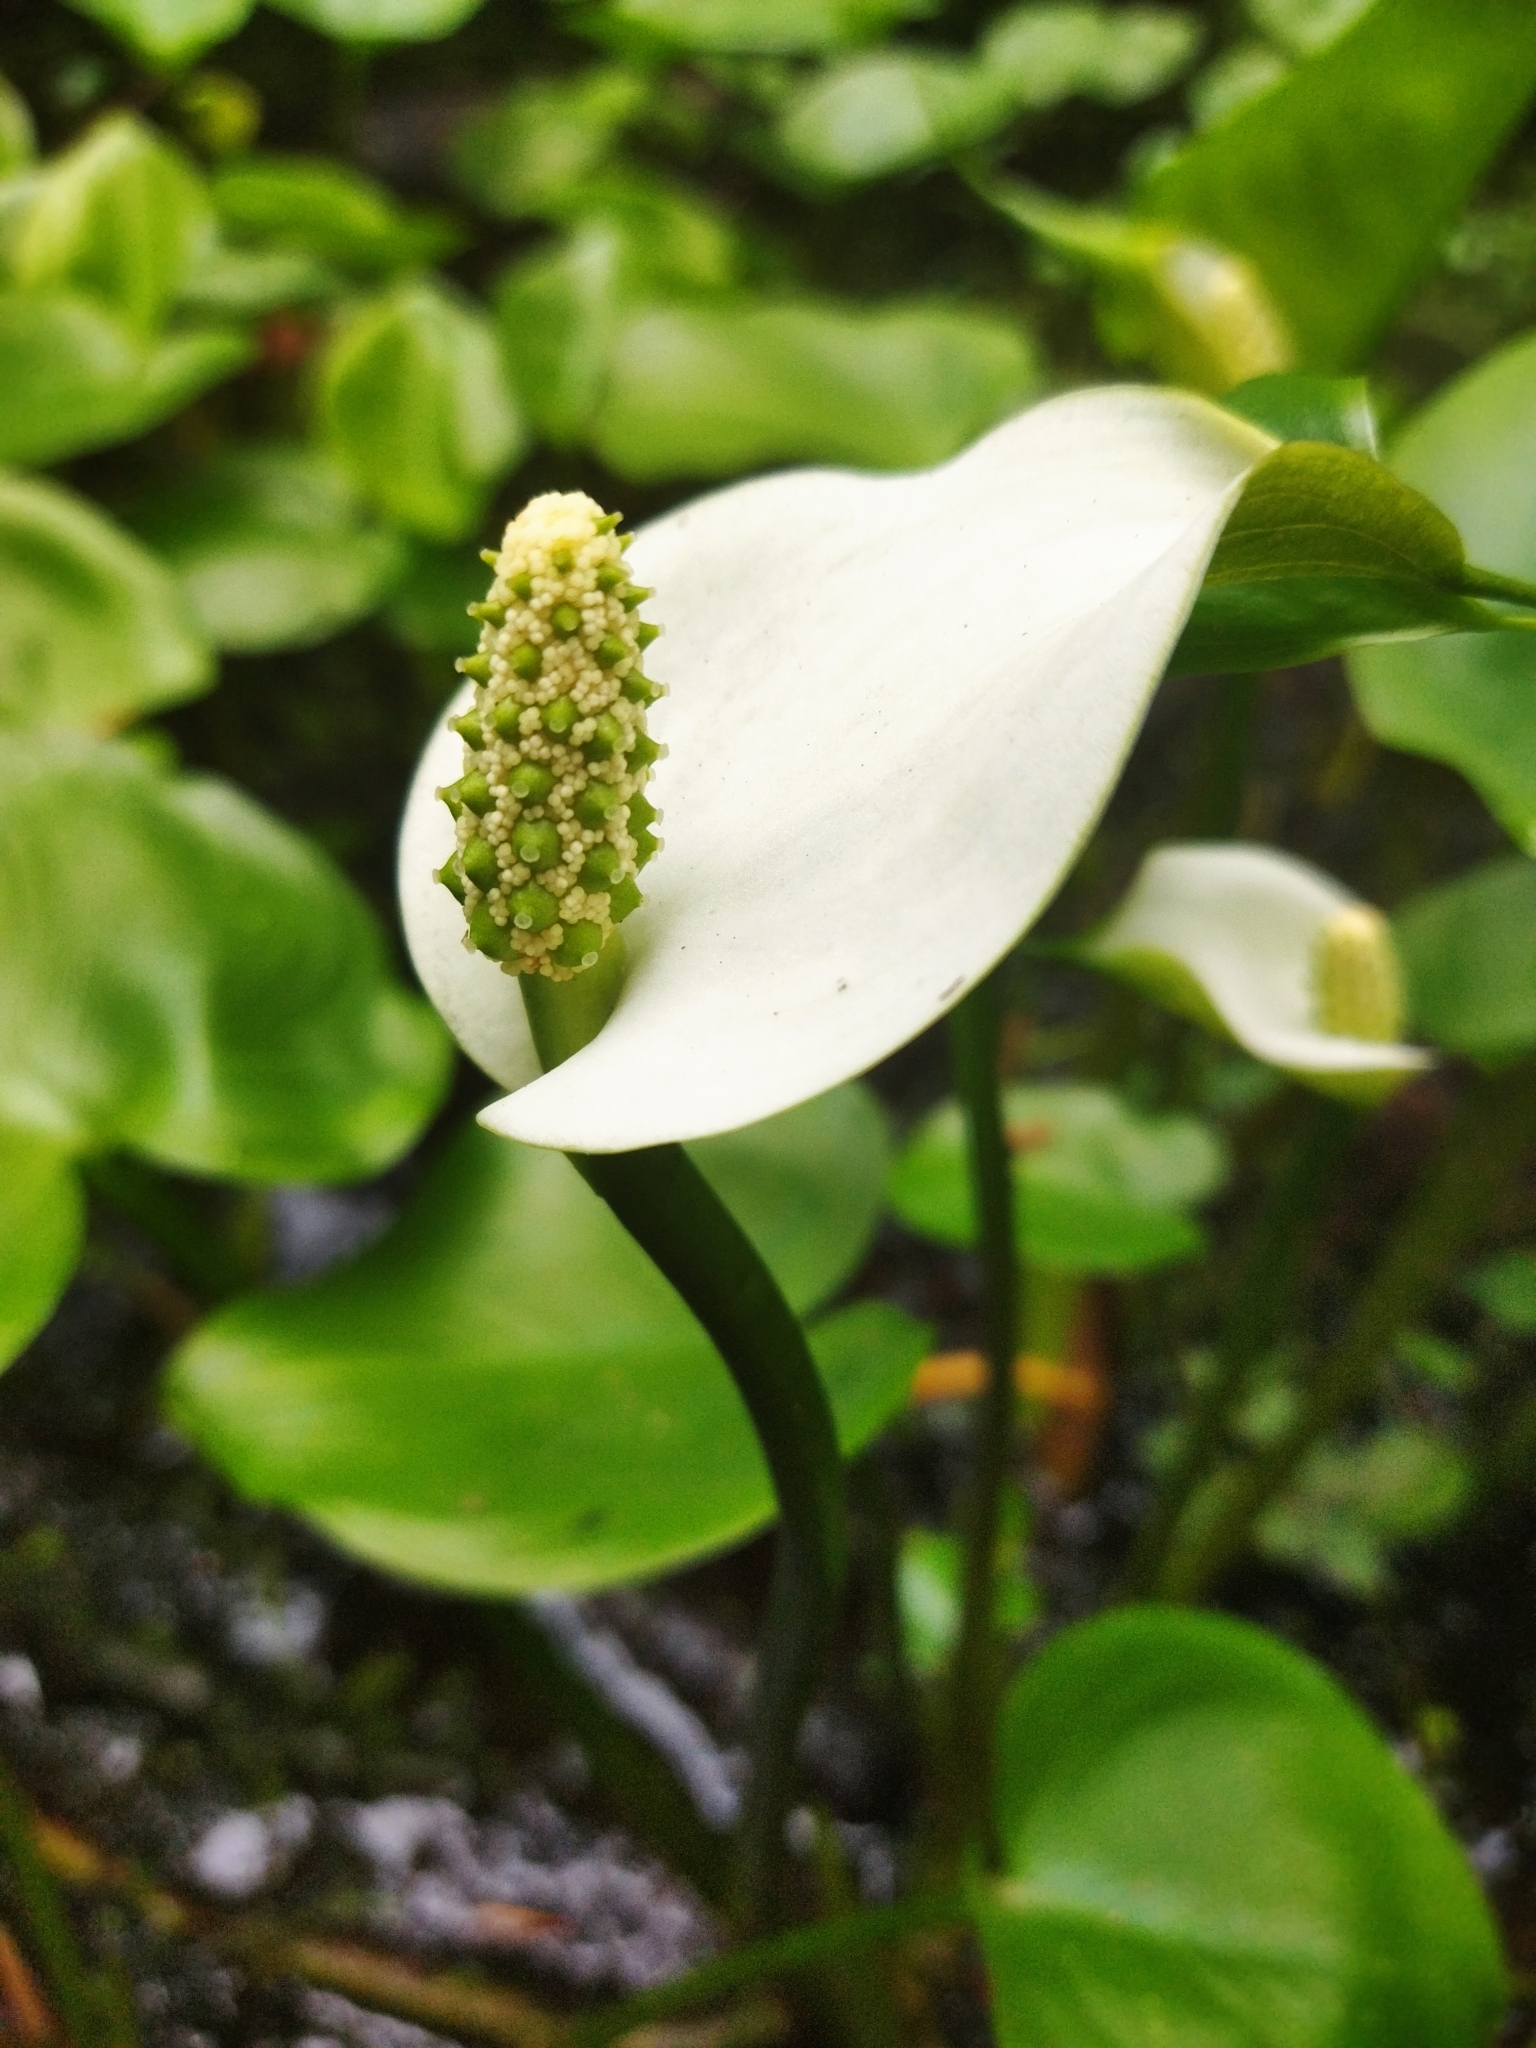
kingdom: Plantae
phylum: Tracheophyta
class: Liliopsida
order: Alismatales
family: Araceae
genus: Calla
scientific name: Calla palustris
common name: Bog arum
